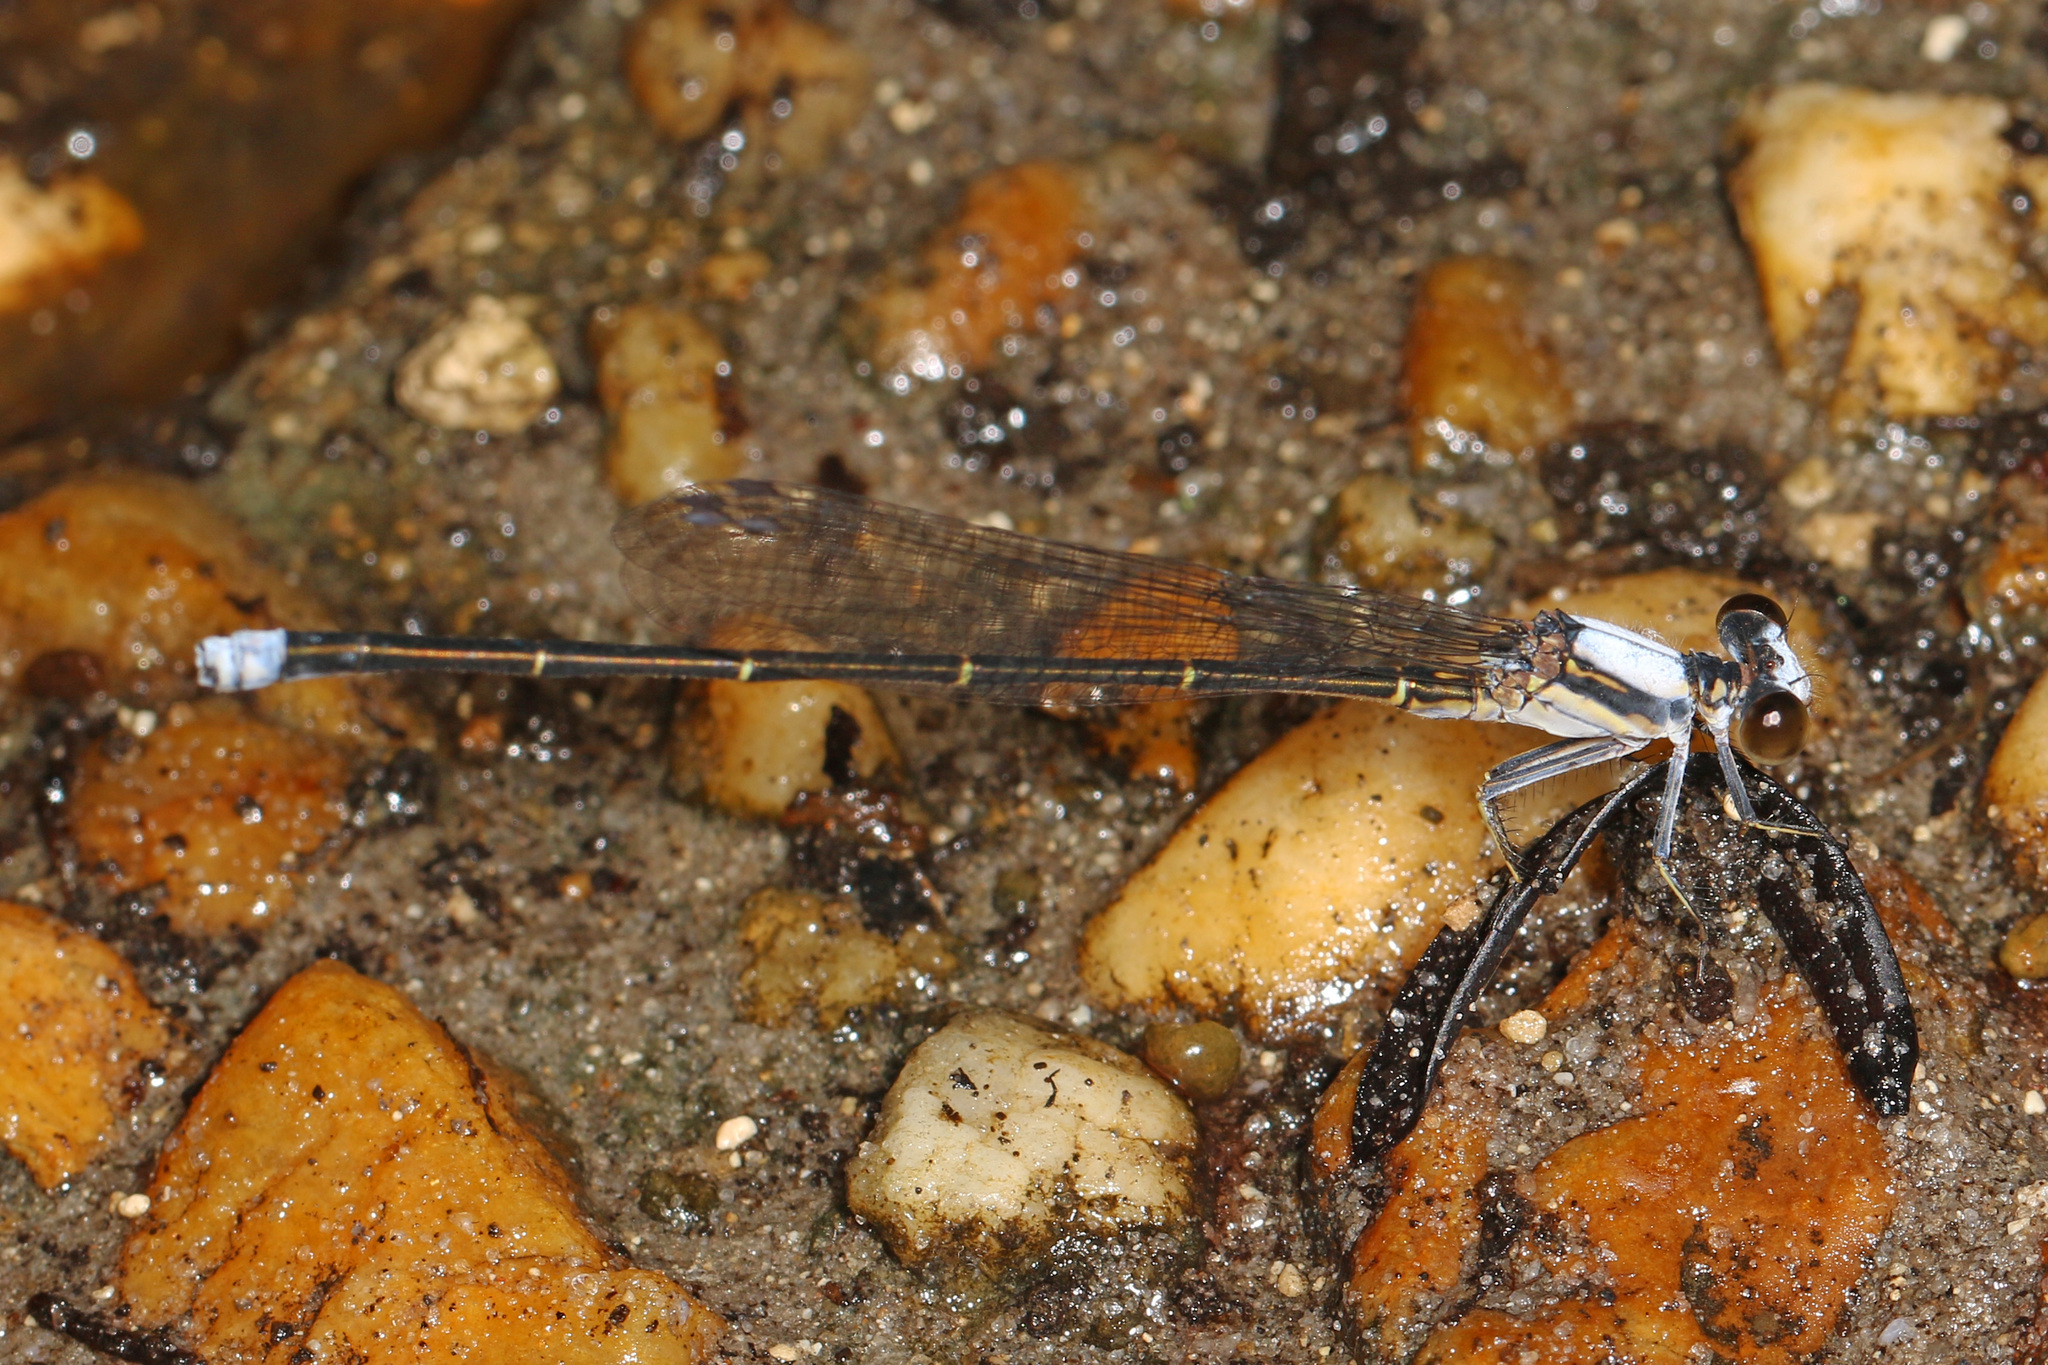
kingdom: Animalia
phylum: Arthropoda
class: Insecta
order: Odonata
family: Coenagrionidae
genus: Argia
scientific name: Argia moesta
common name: Powdered dancer
